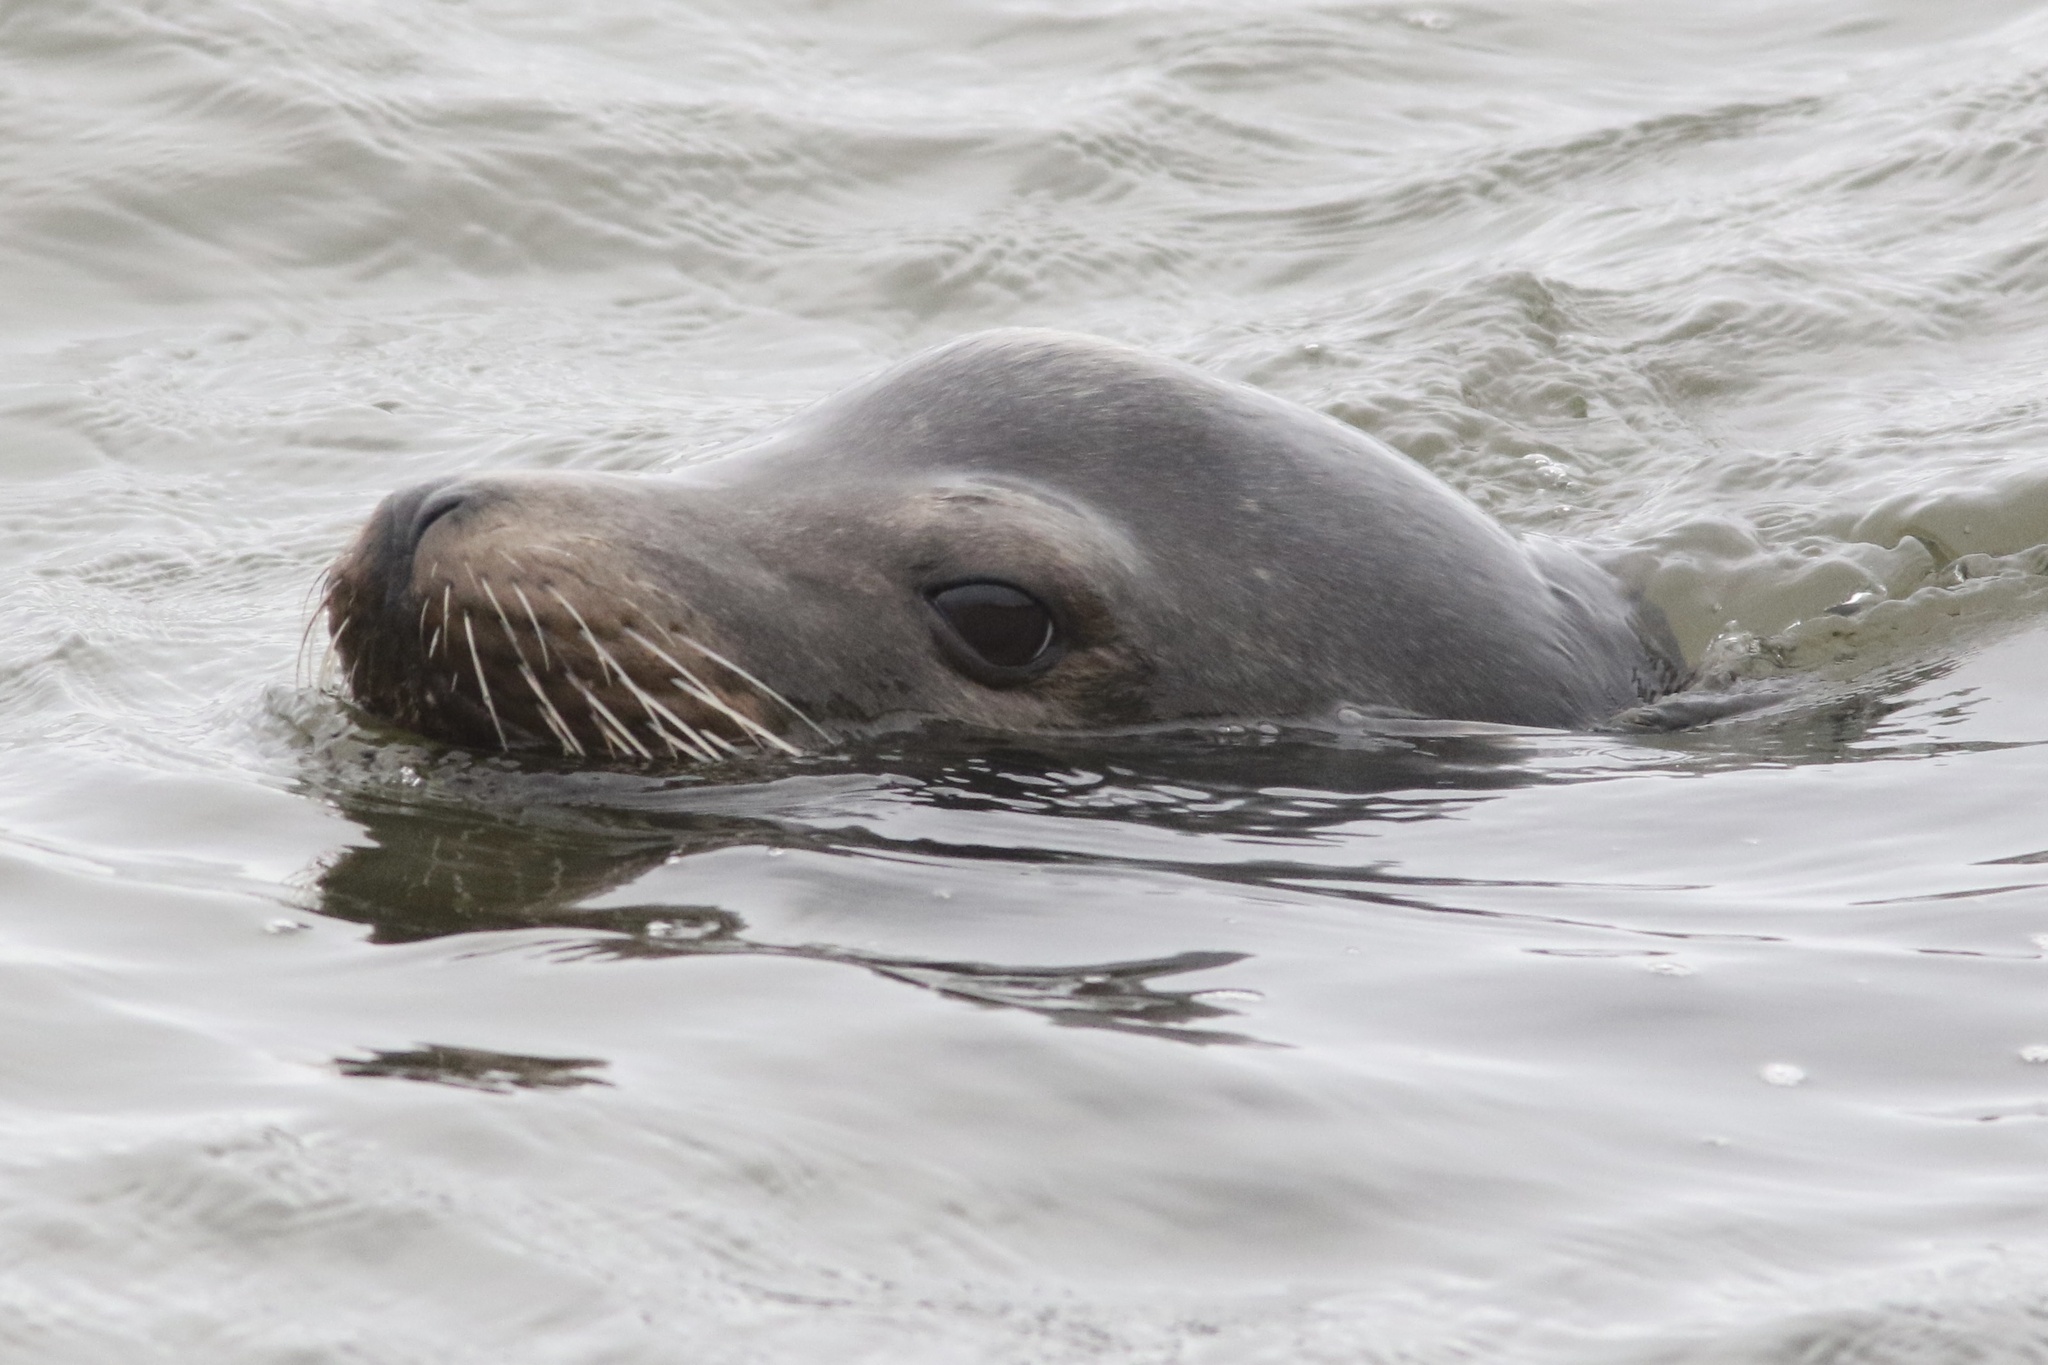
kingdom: Animalia
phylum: Chordata
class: Mammalia
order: Carnivora
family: Otariidae
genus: Zalophus
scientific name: Zalophus californianus
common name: California sea lion
